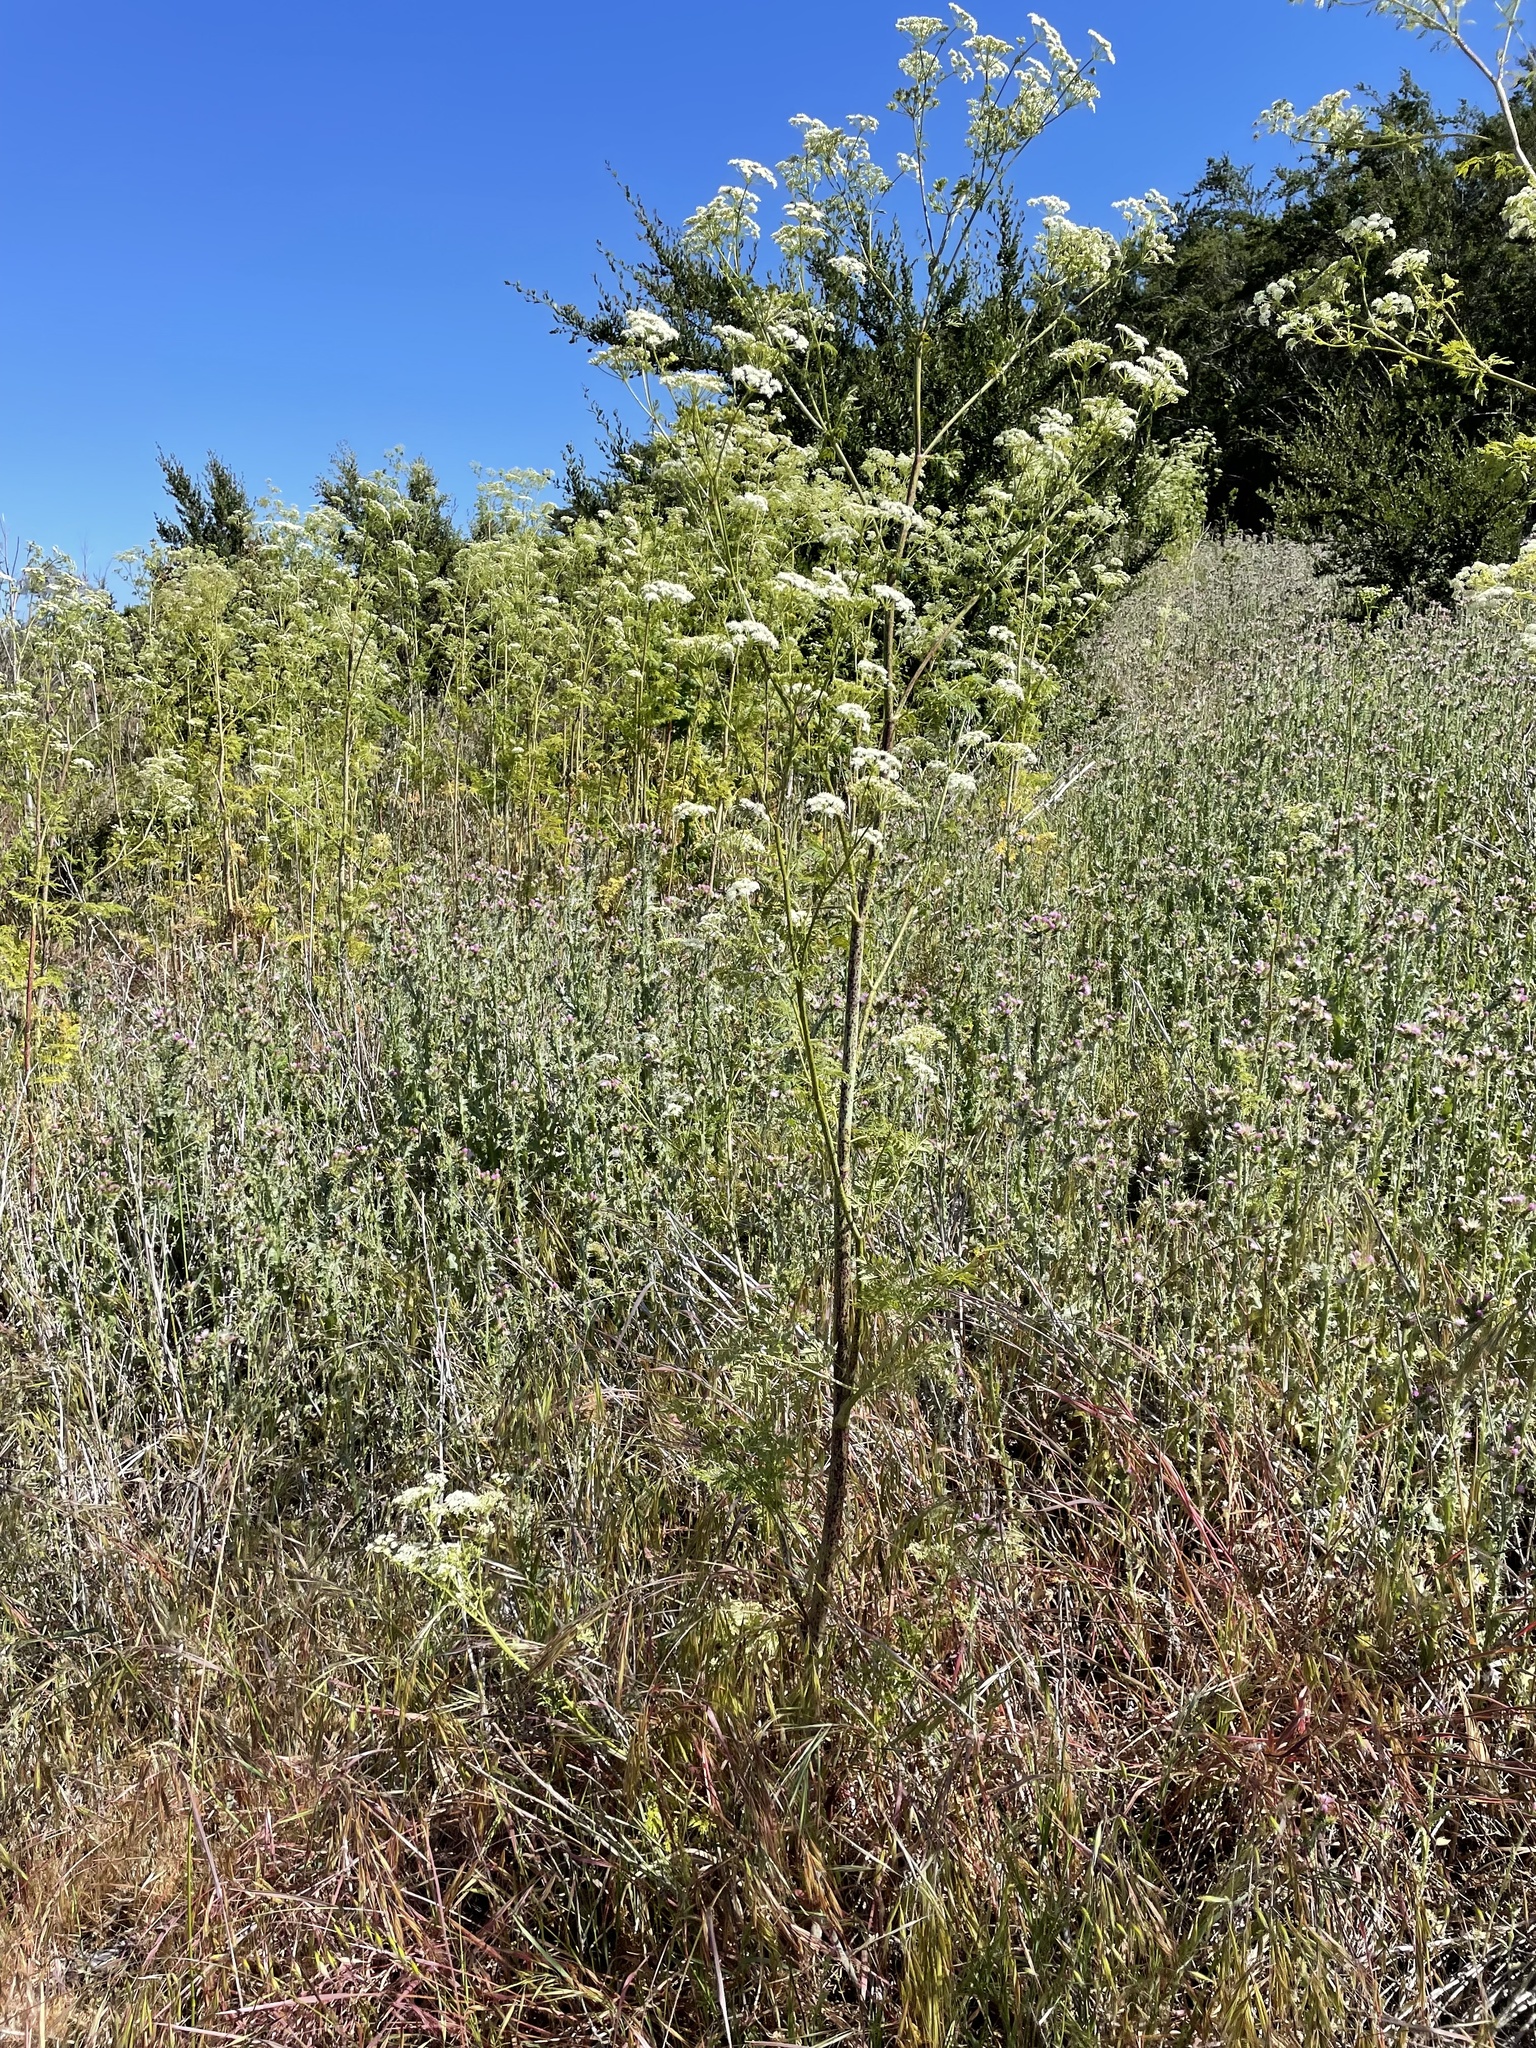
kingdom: Plantae
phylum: Tracheophyta
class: Magnoliopsida
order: Apiales
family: Apiaceae
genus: Conium
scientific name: Conium maculatum
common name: Hemlock
